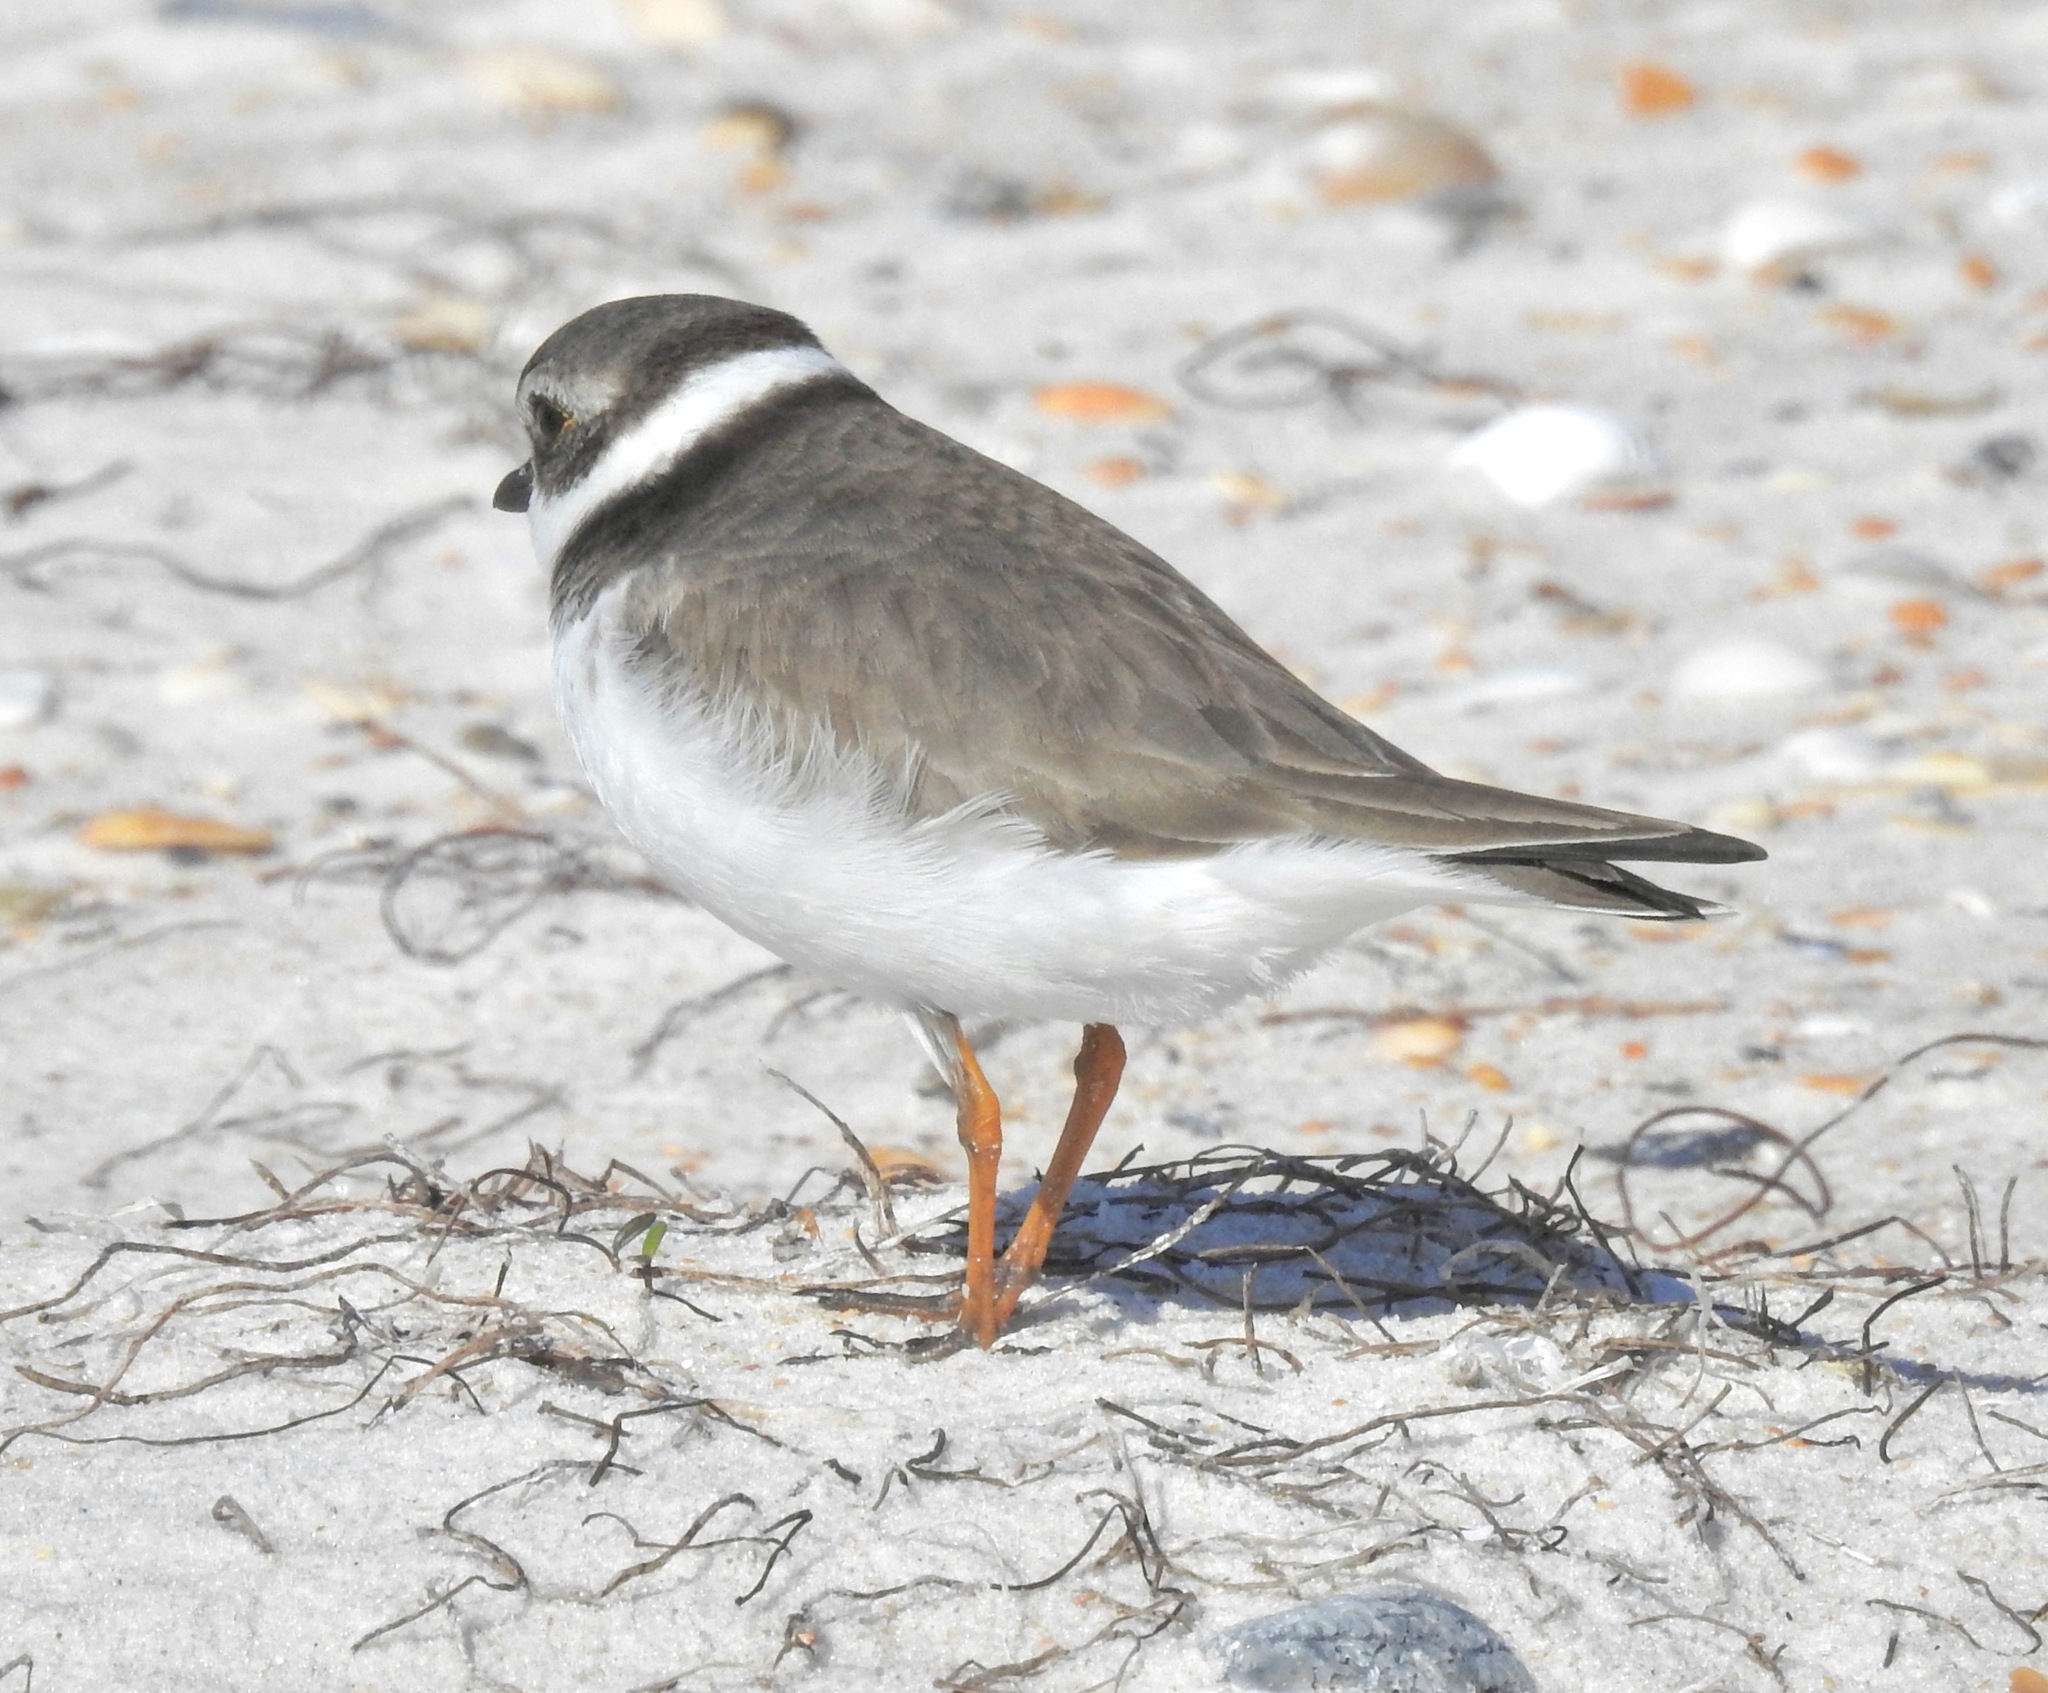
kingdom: Animalia
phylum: Chordata
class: Aves
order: Charadriiformes
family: Charadriidae
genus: Charadrius
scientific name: Charadrius semipalmatus
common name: Semipalmated plover
